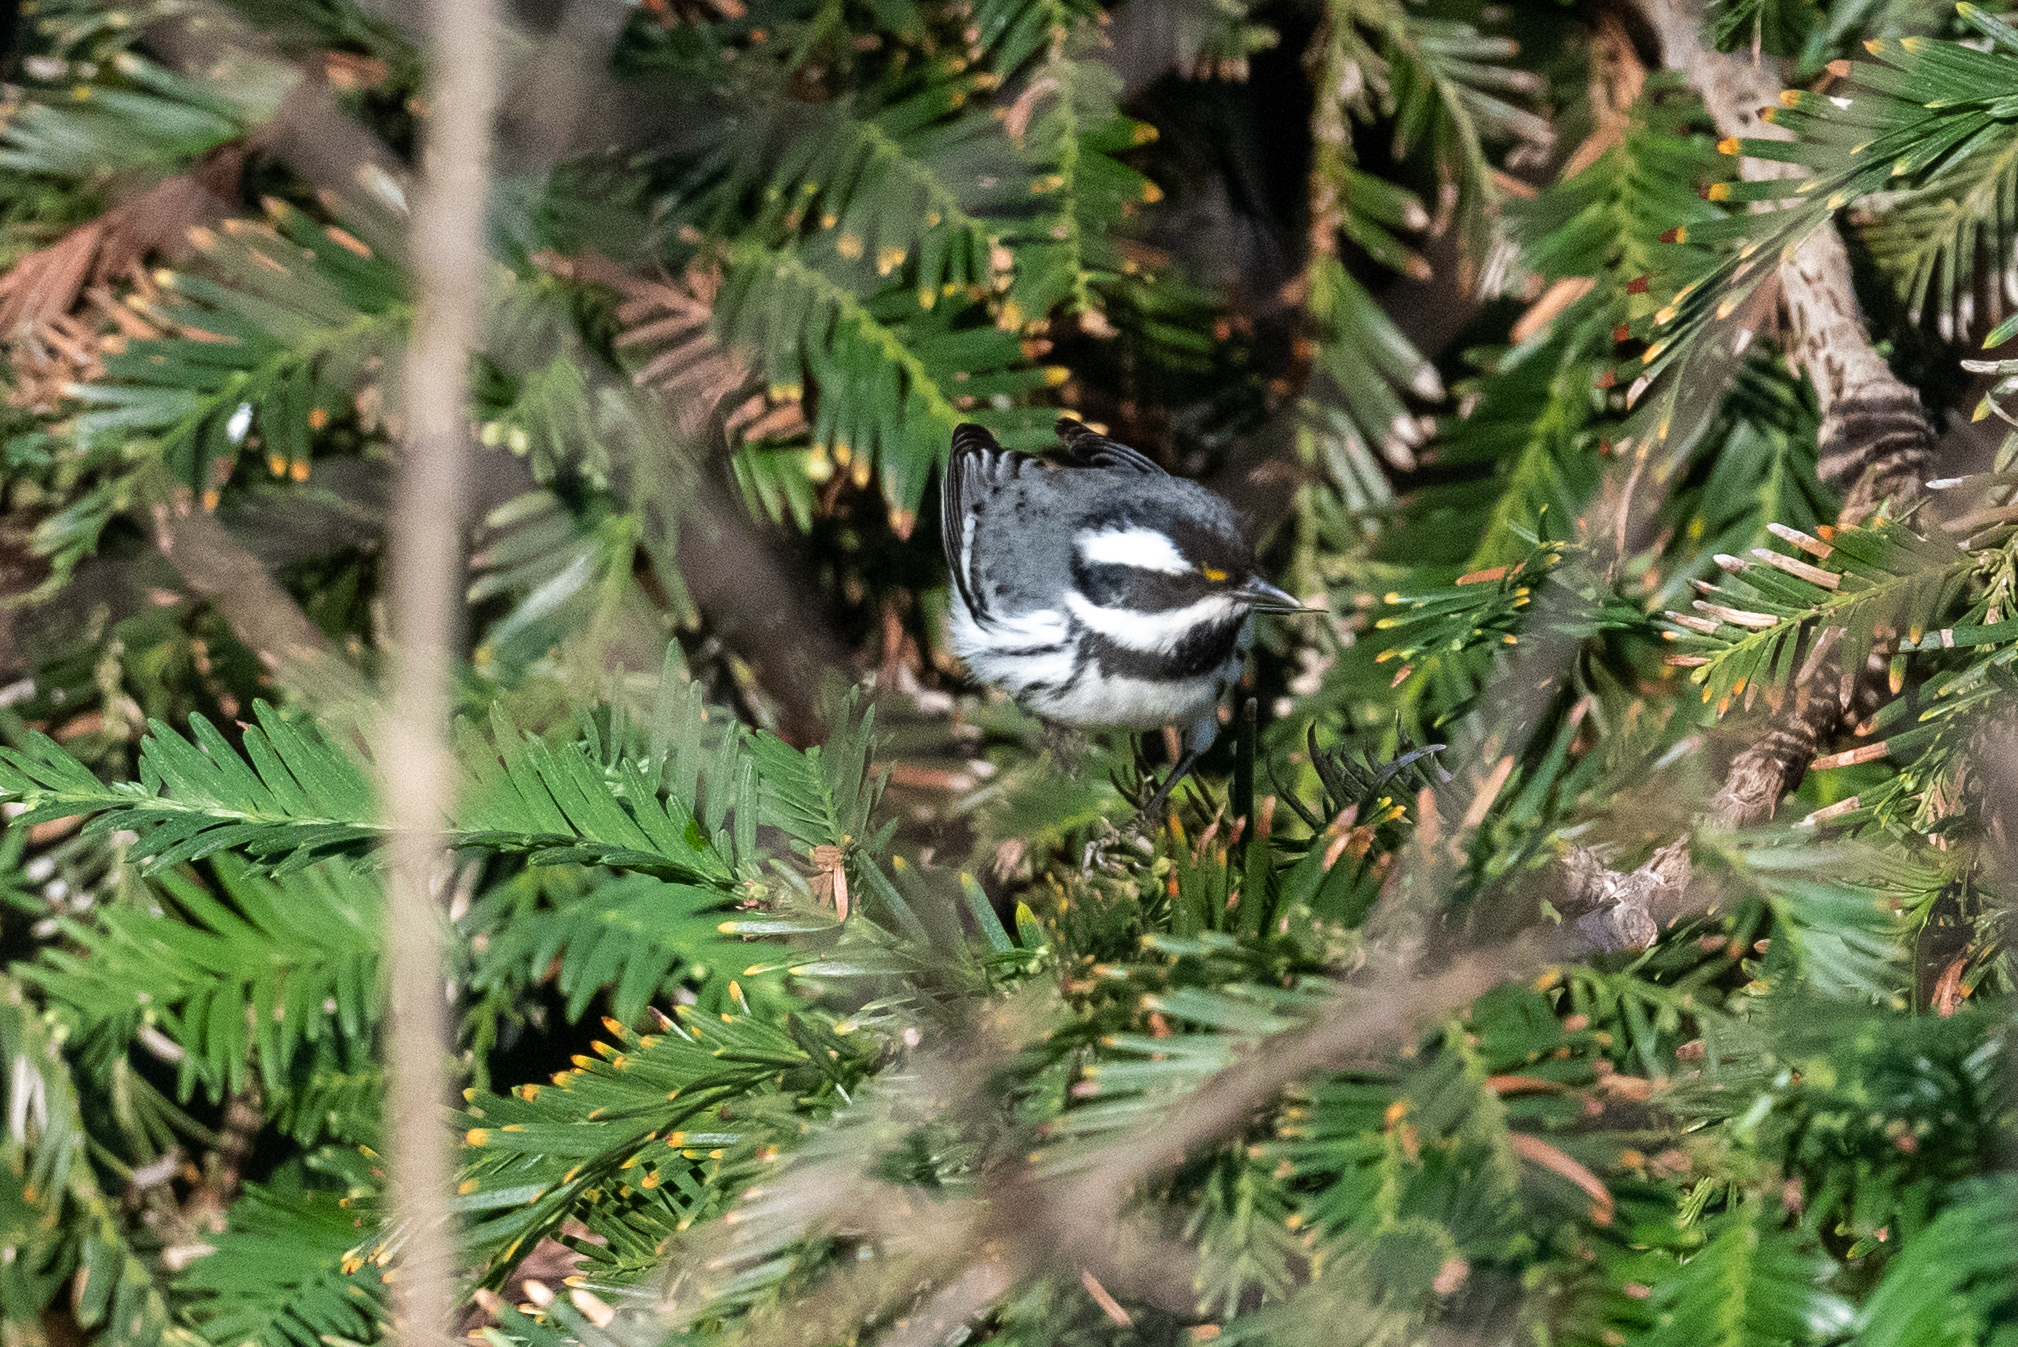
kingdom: Animalia
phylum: Chordata
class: Aves
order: Passeriformes
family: Parulidae
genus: Setophaga
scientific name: Setophaga nigrescens
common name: Black-throated gray warbler
